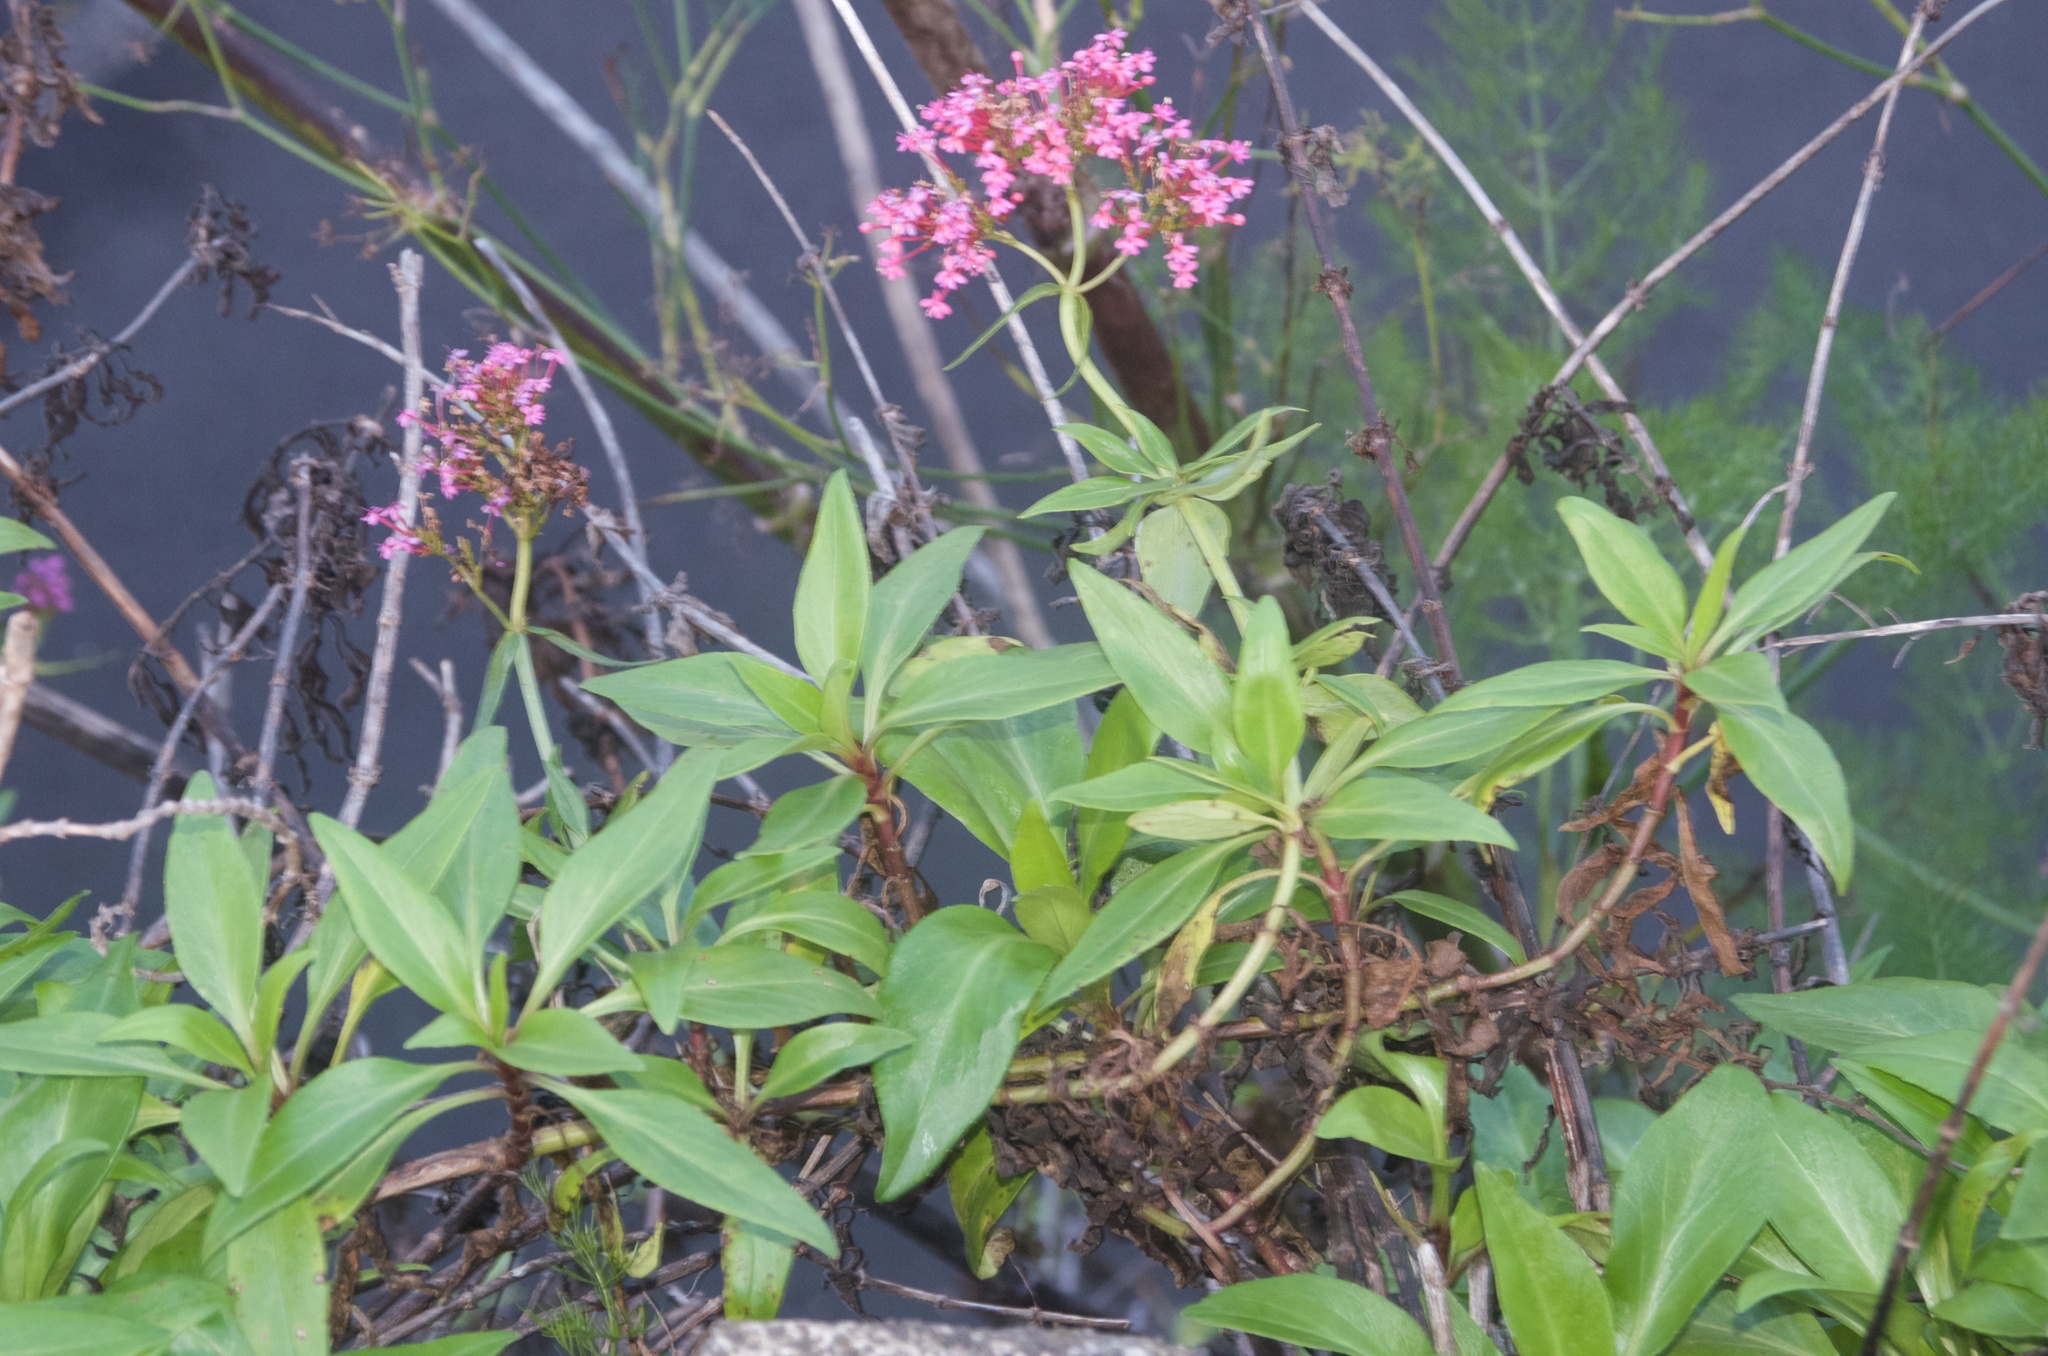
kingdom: Plantae
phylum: Tracheophyta
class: Magnoliopsida
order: Dipsacales
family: Caprifoliaceae
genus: Centranthus
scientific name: Centranthus ruber
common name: Red valerian
